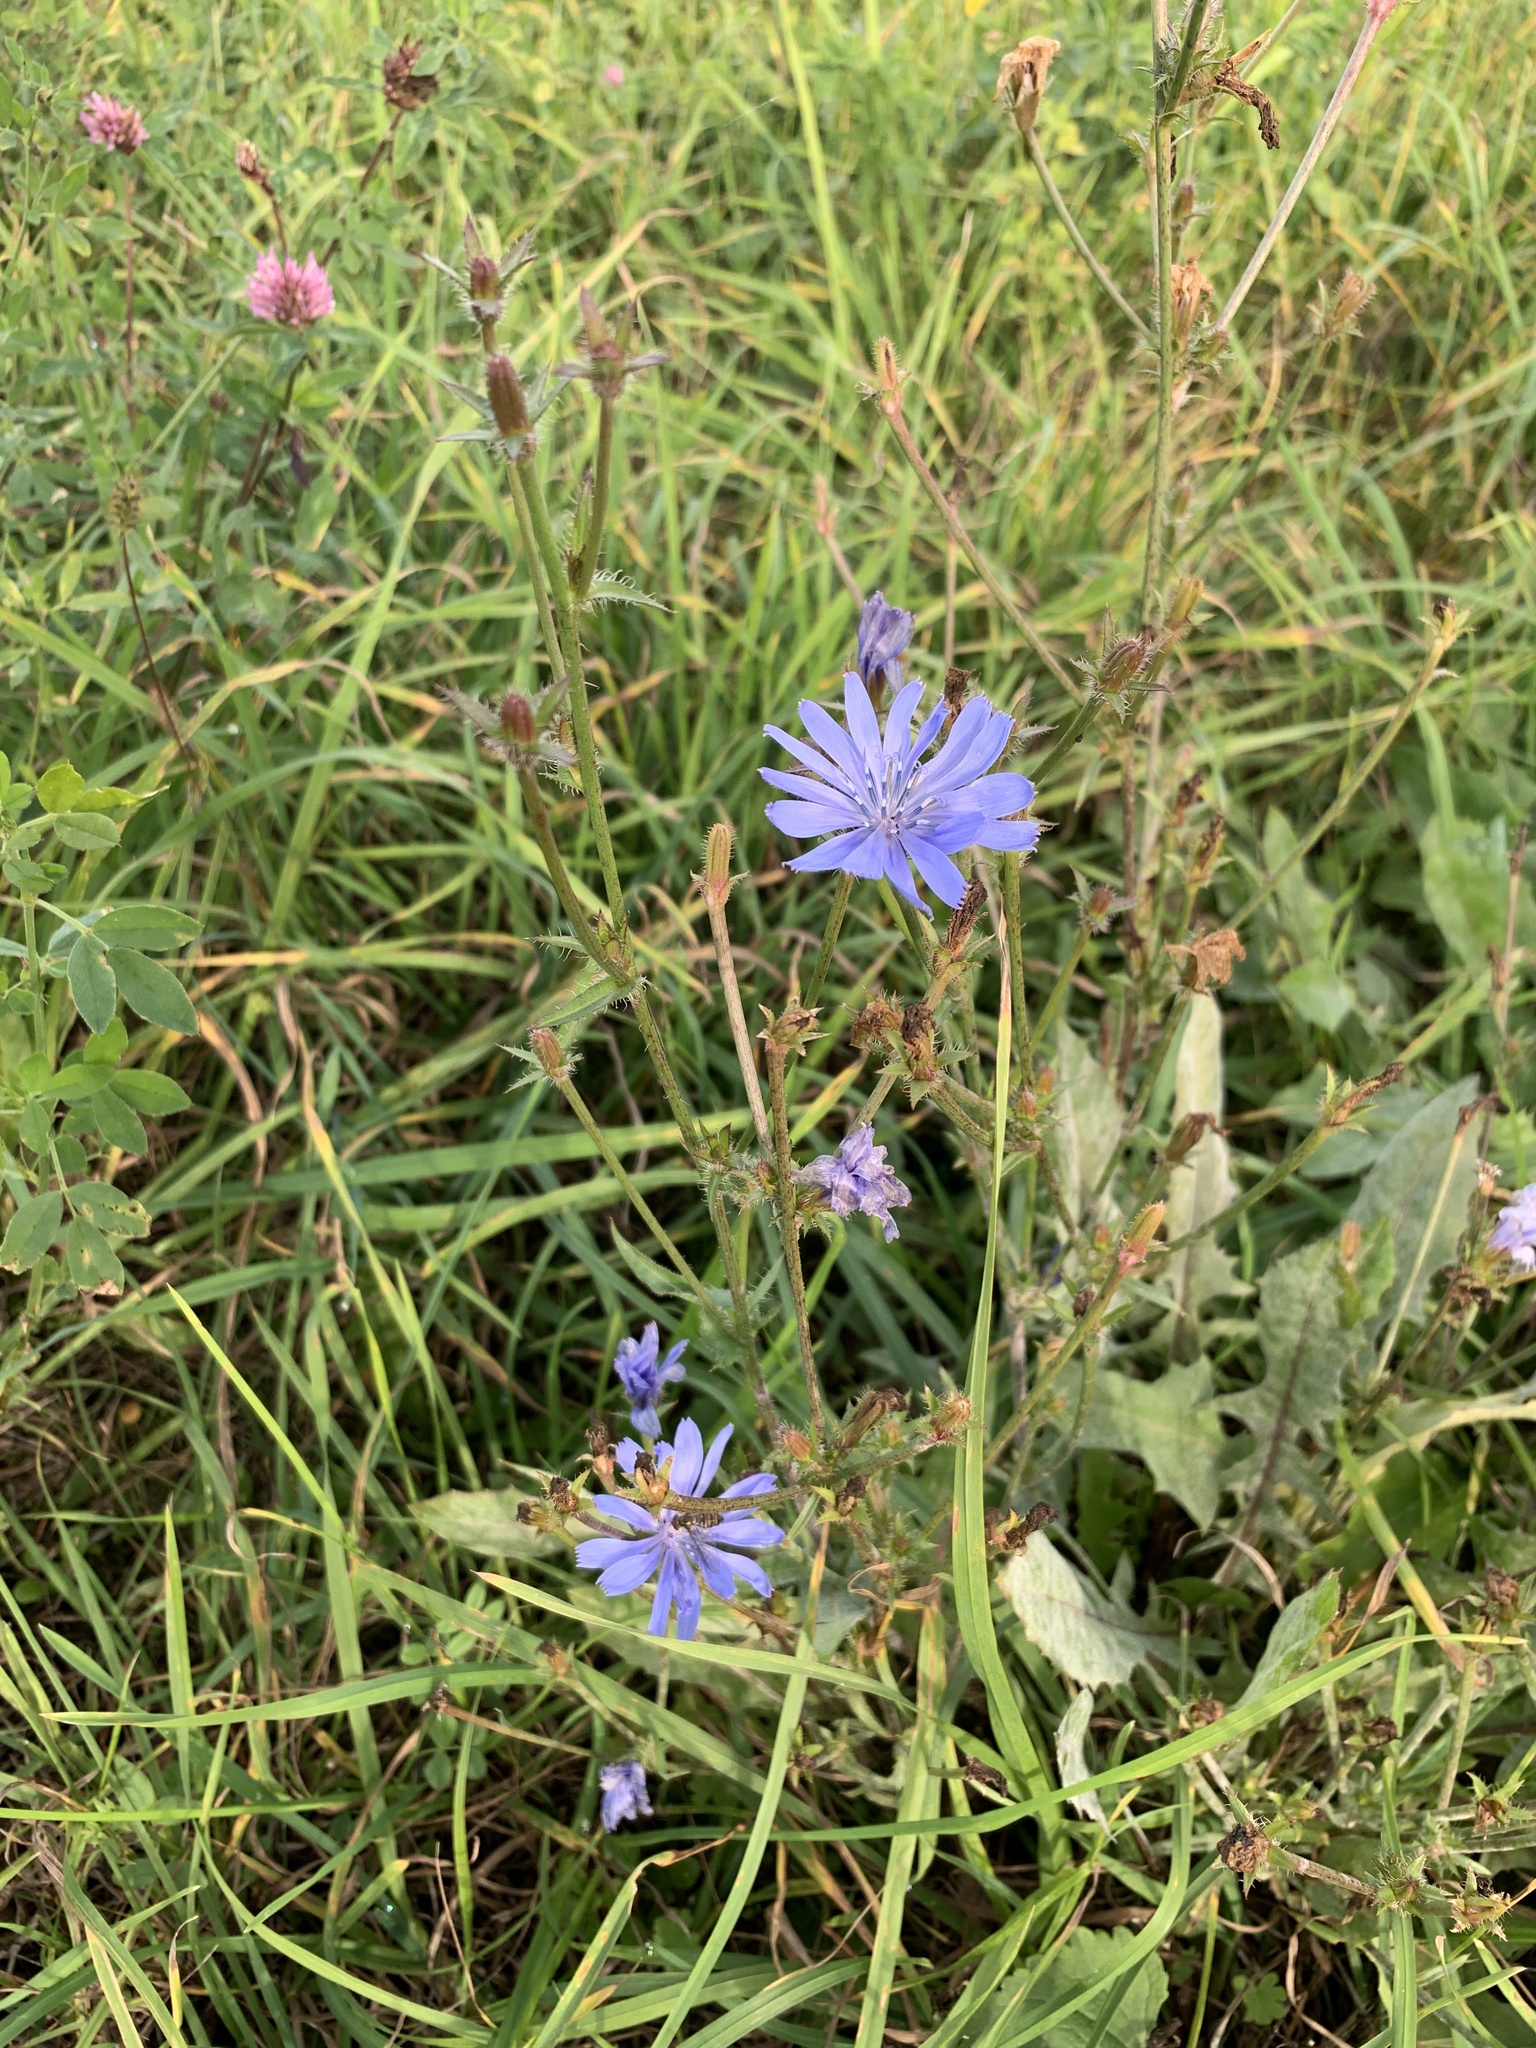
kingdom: Plantae
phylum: Tracheophyta
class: Magnoliopsida
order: Asterales
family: Asteraceae
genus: Cichorium
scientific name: Cichorium intybus
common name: Chicory
